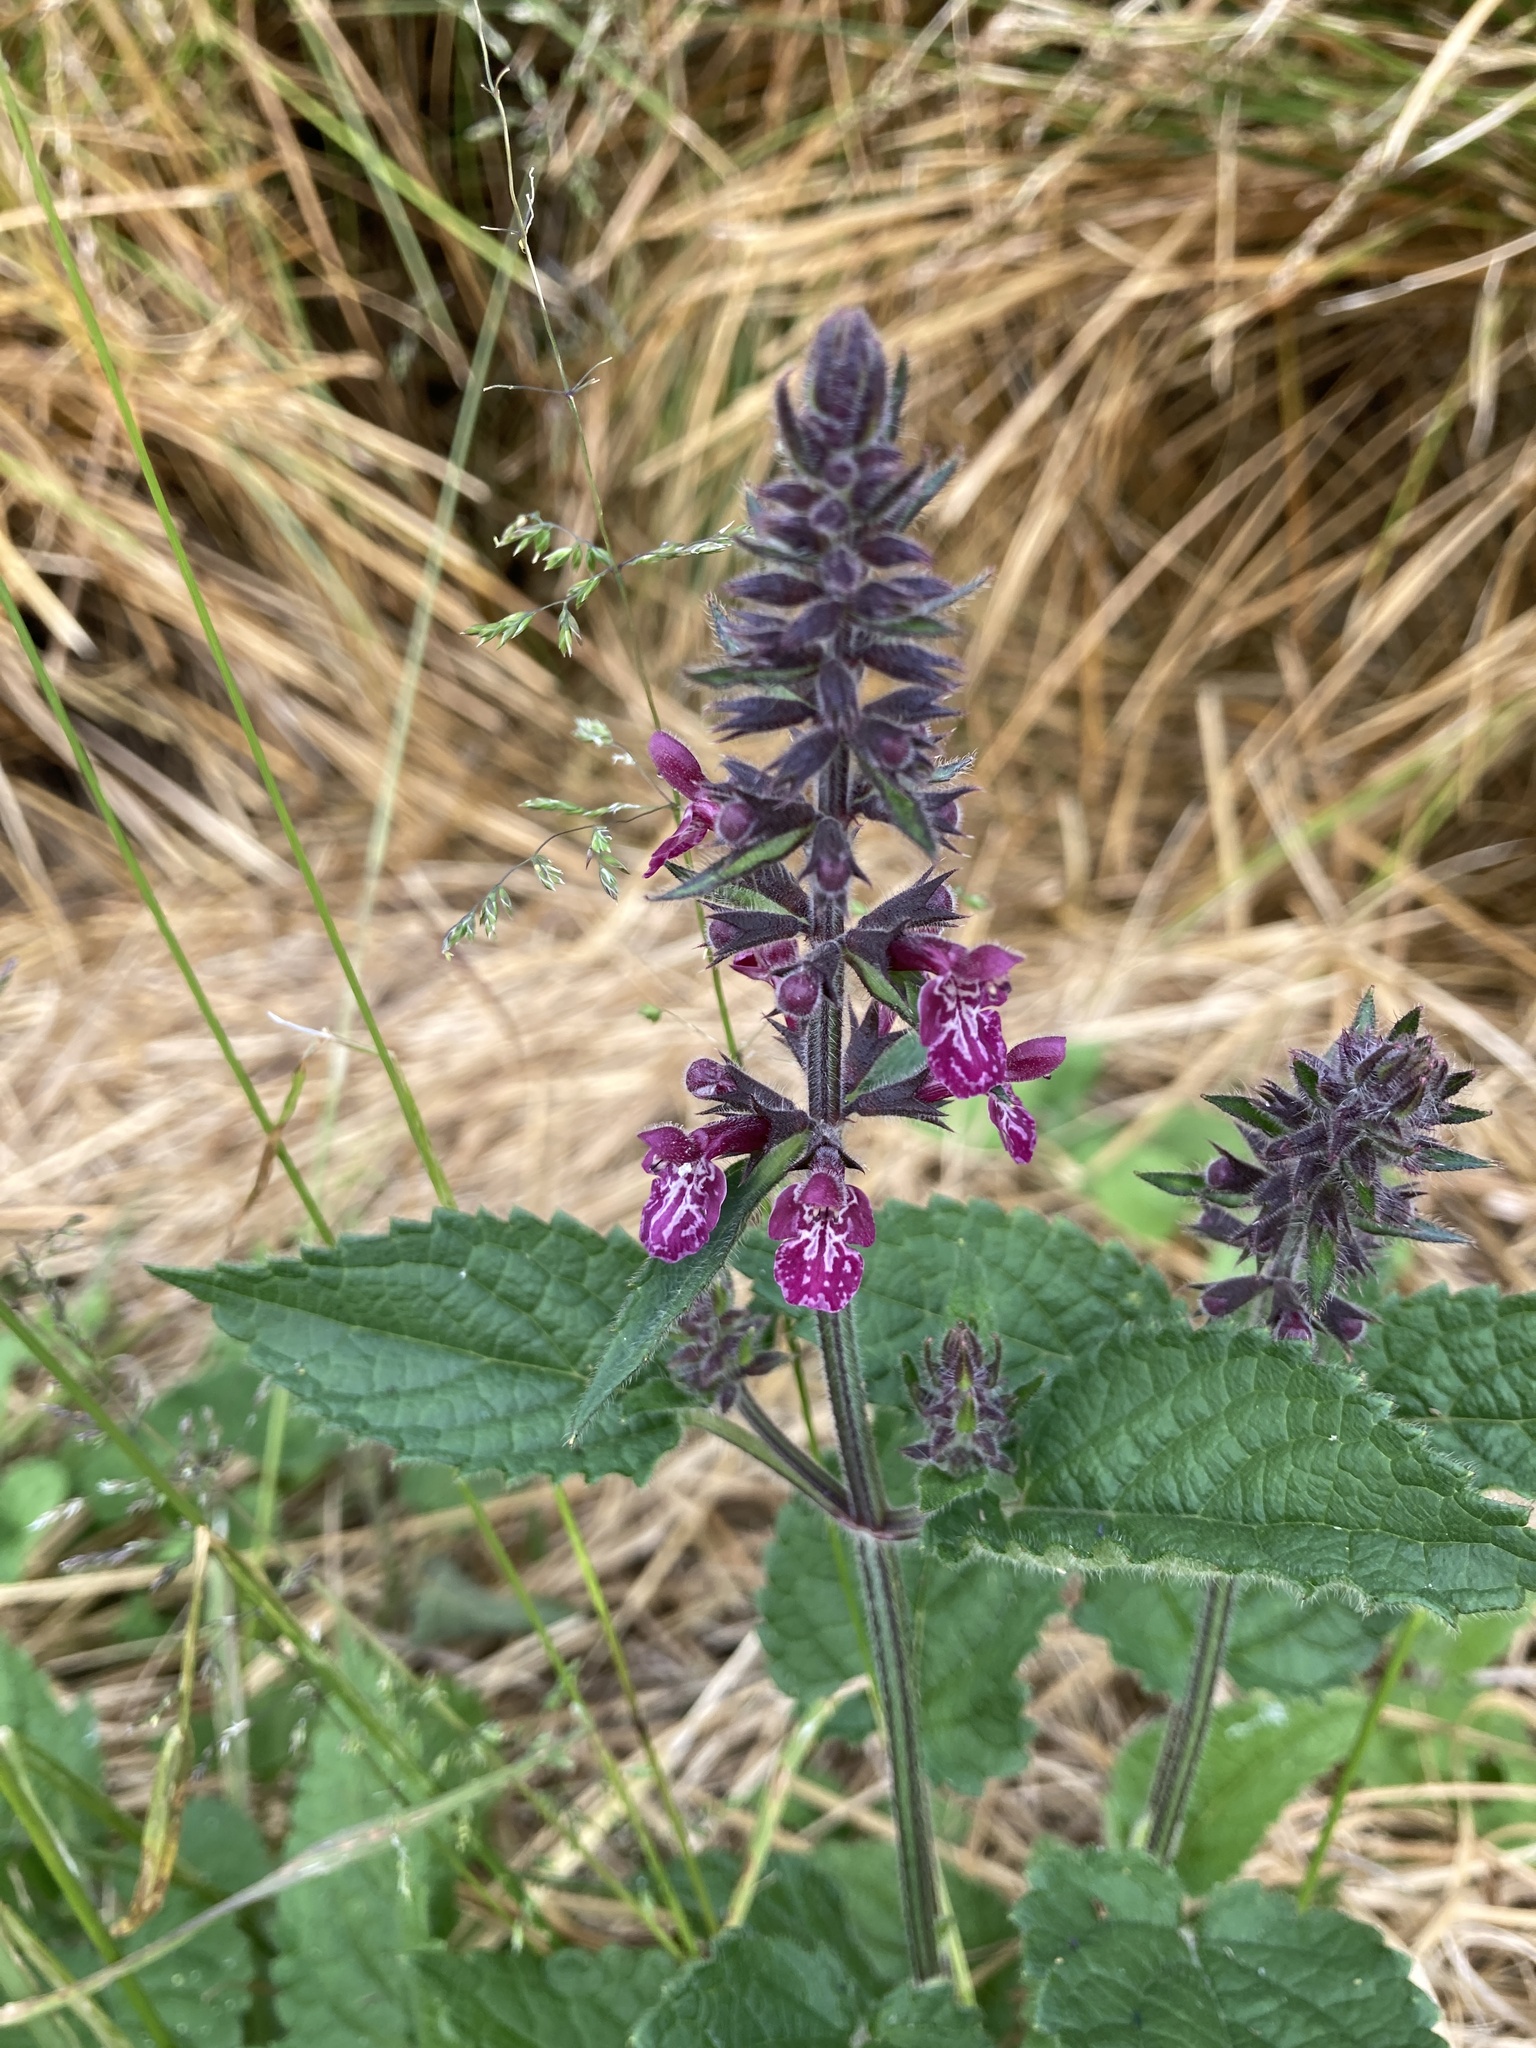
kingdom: Plantae
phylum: Tracheophyta
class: Magnoliopsida
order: Lamiales
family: Lamiaceae
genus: Stachys
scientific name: Stachys sylvatica
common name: Hedge woundwort
